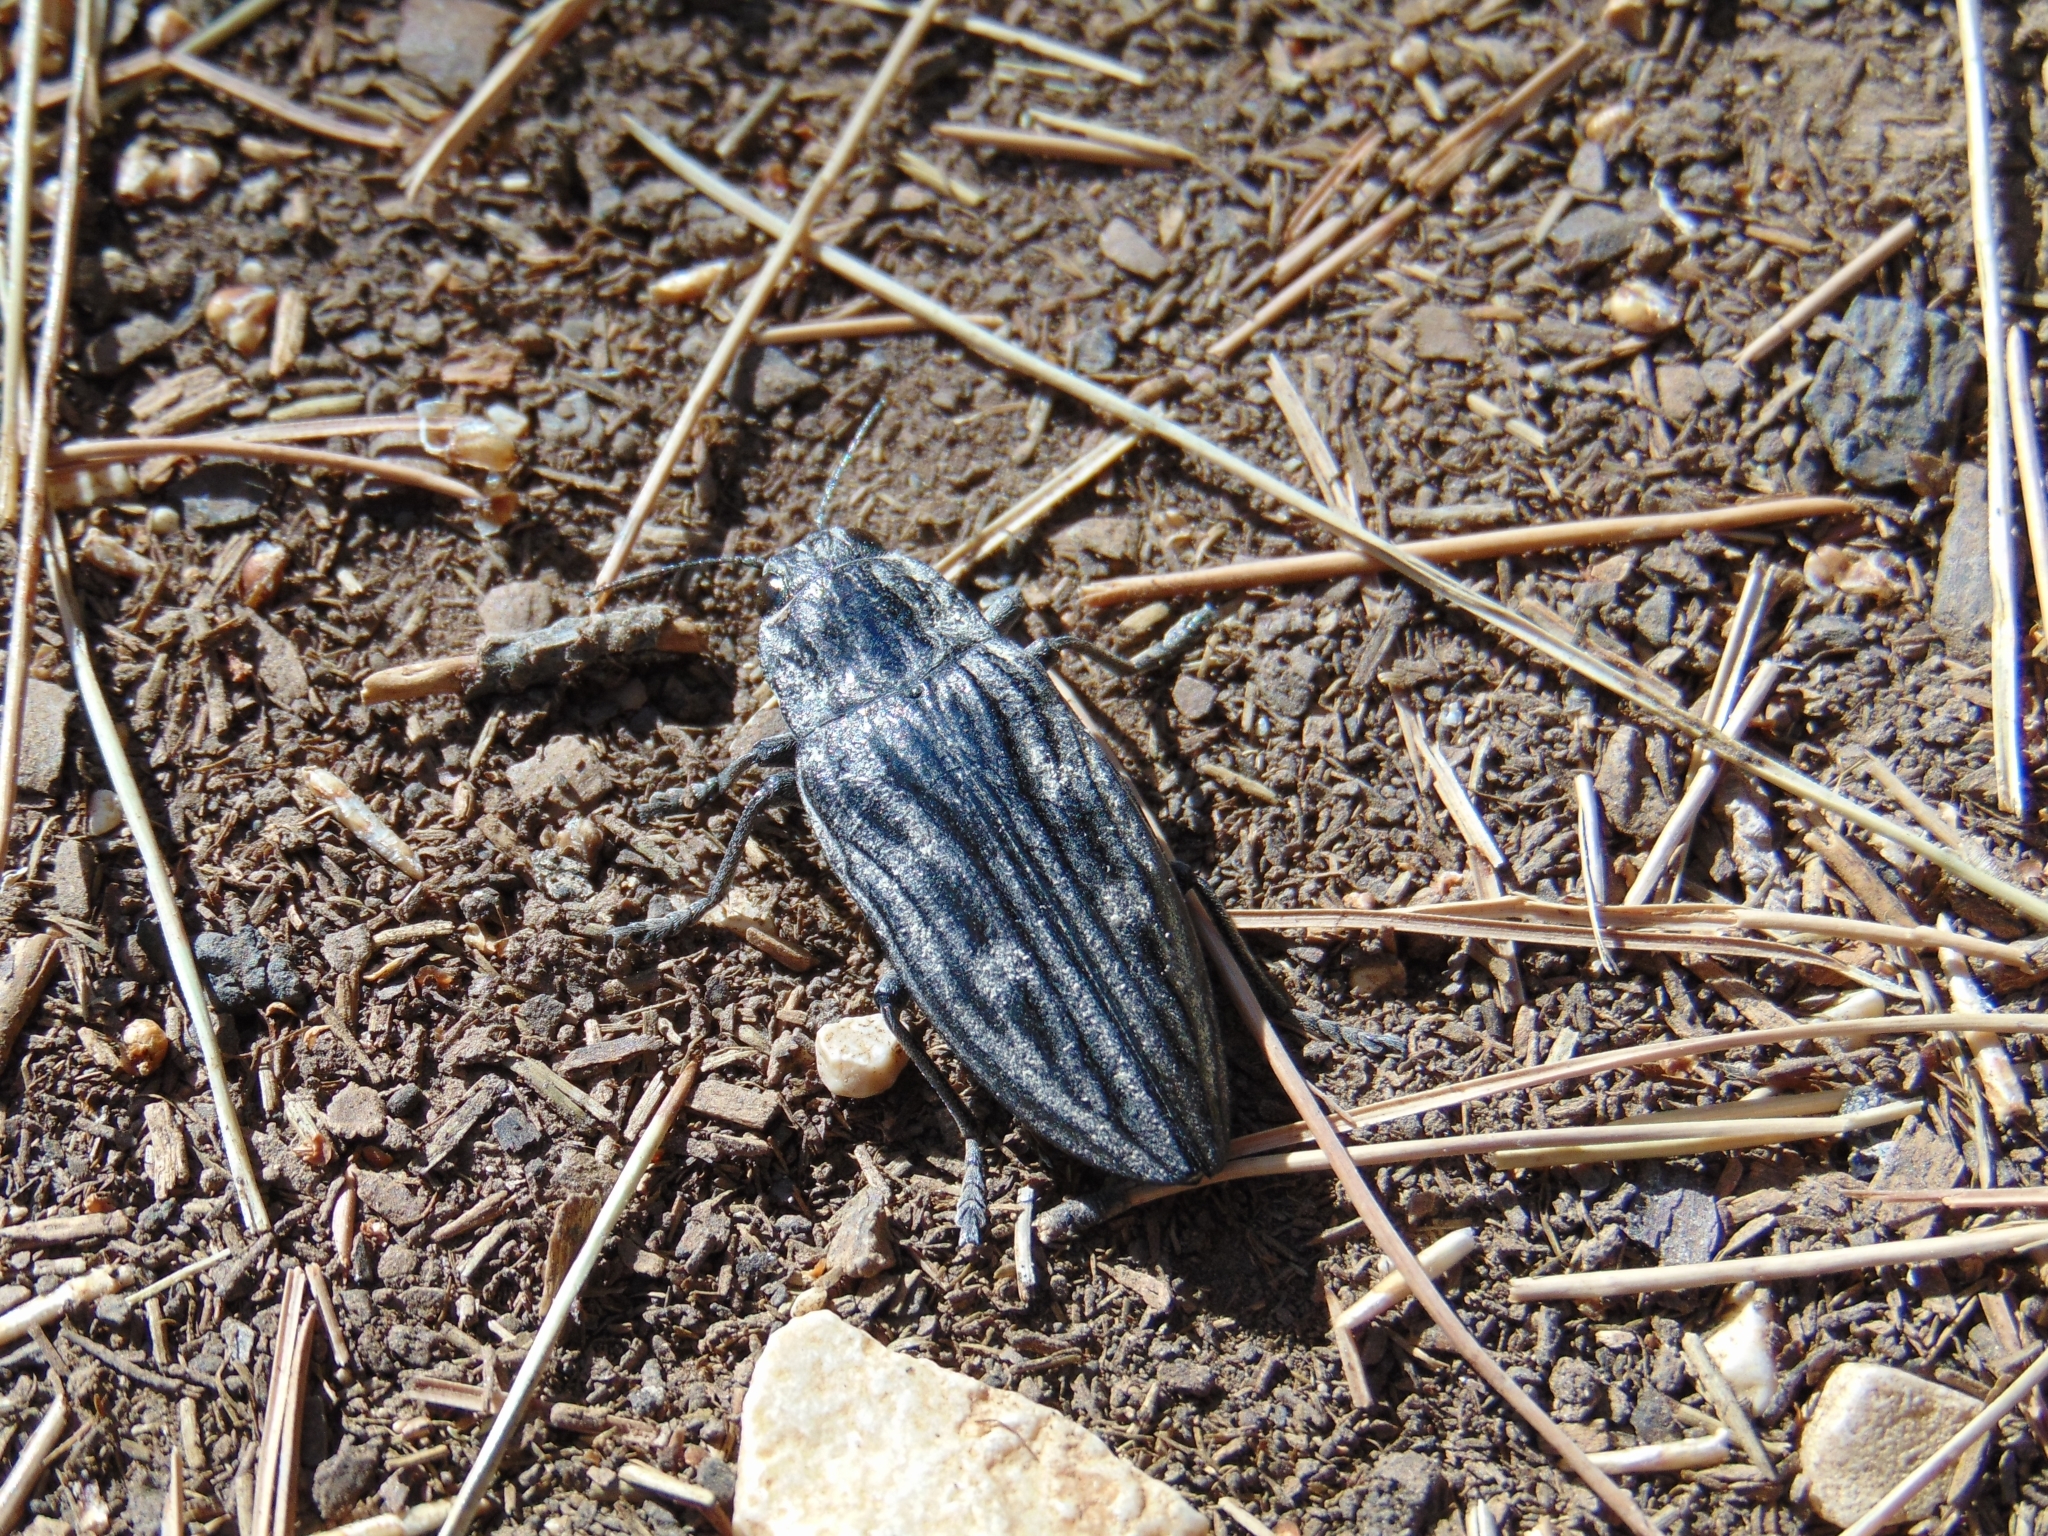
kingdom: Animalia
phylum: Arthropoda
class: Insecta
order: Coleoptera
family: Buprestidae
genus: Chalcophora
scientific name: Chalcophora mariana
